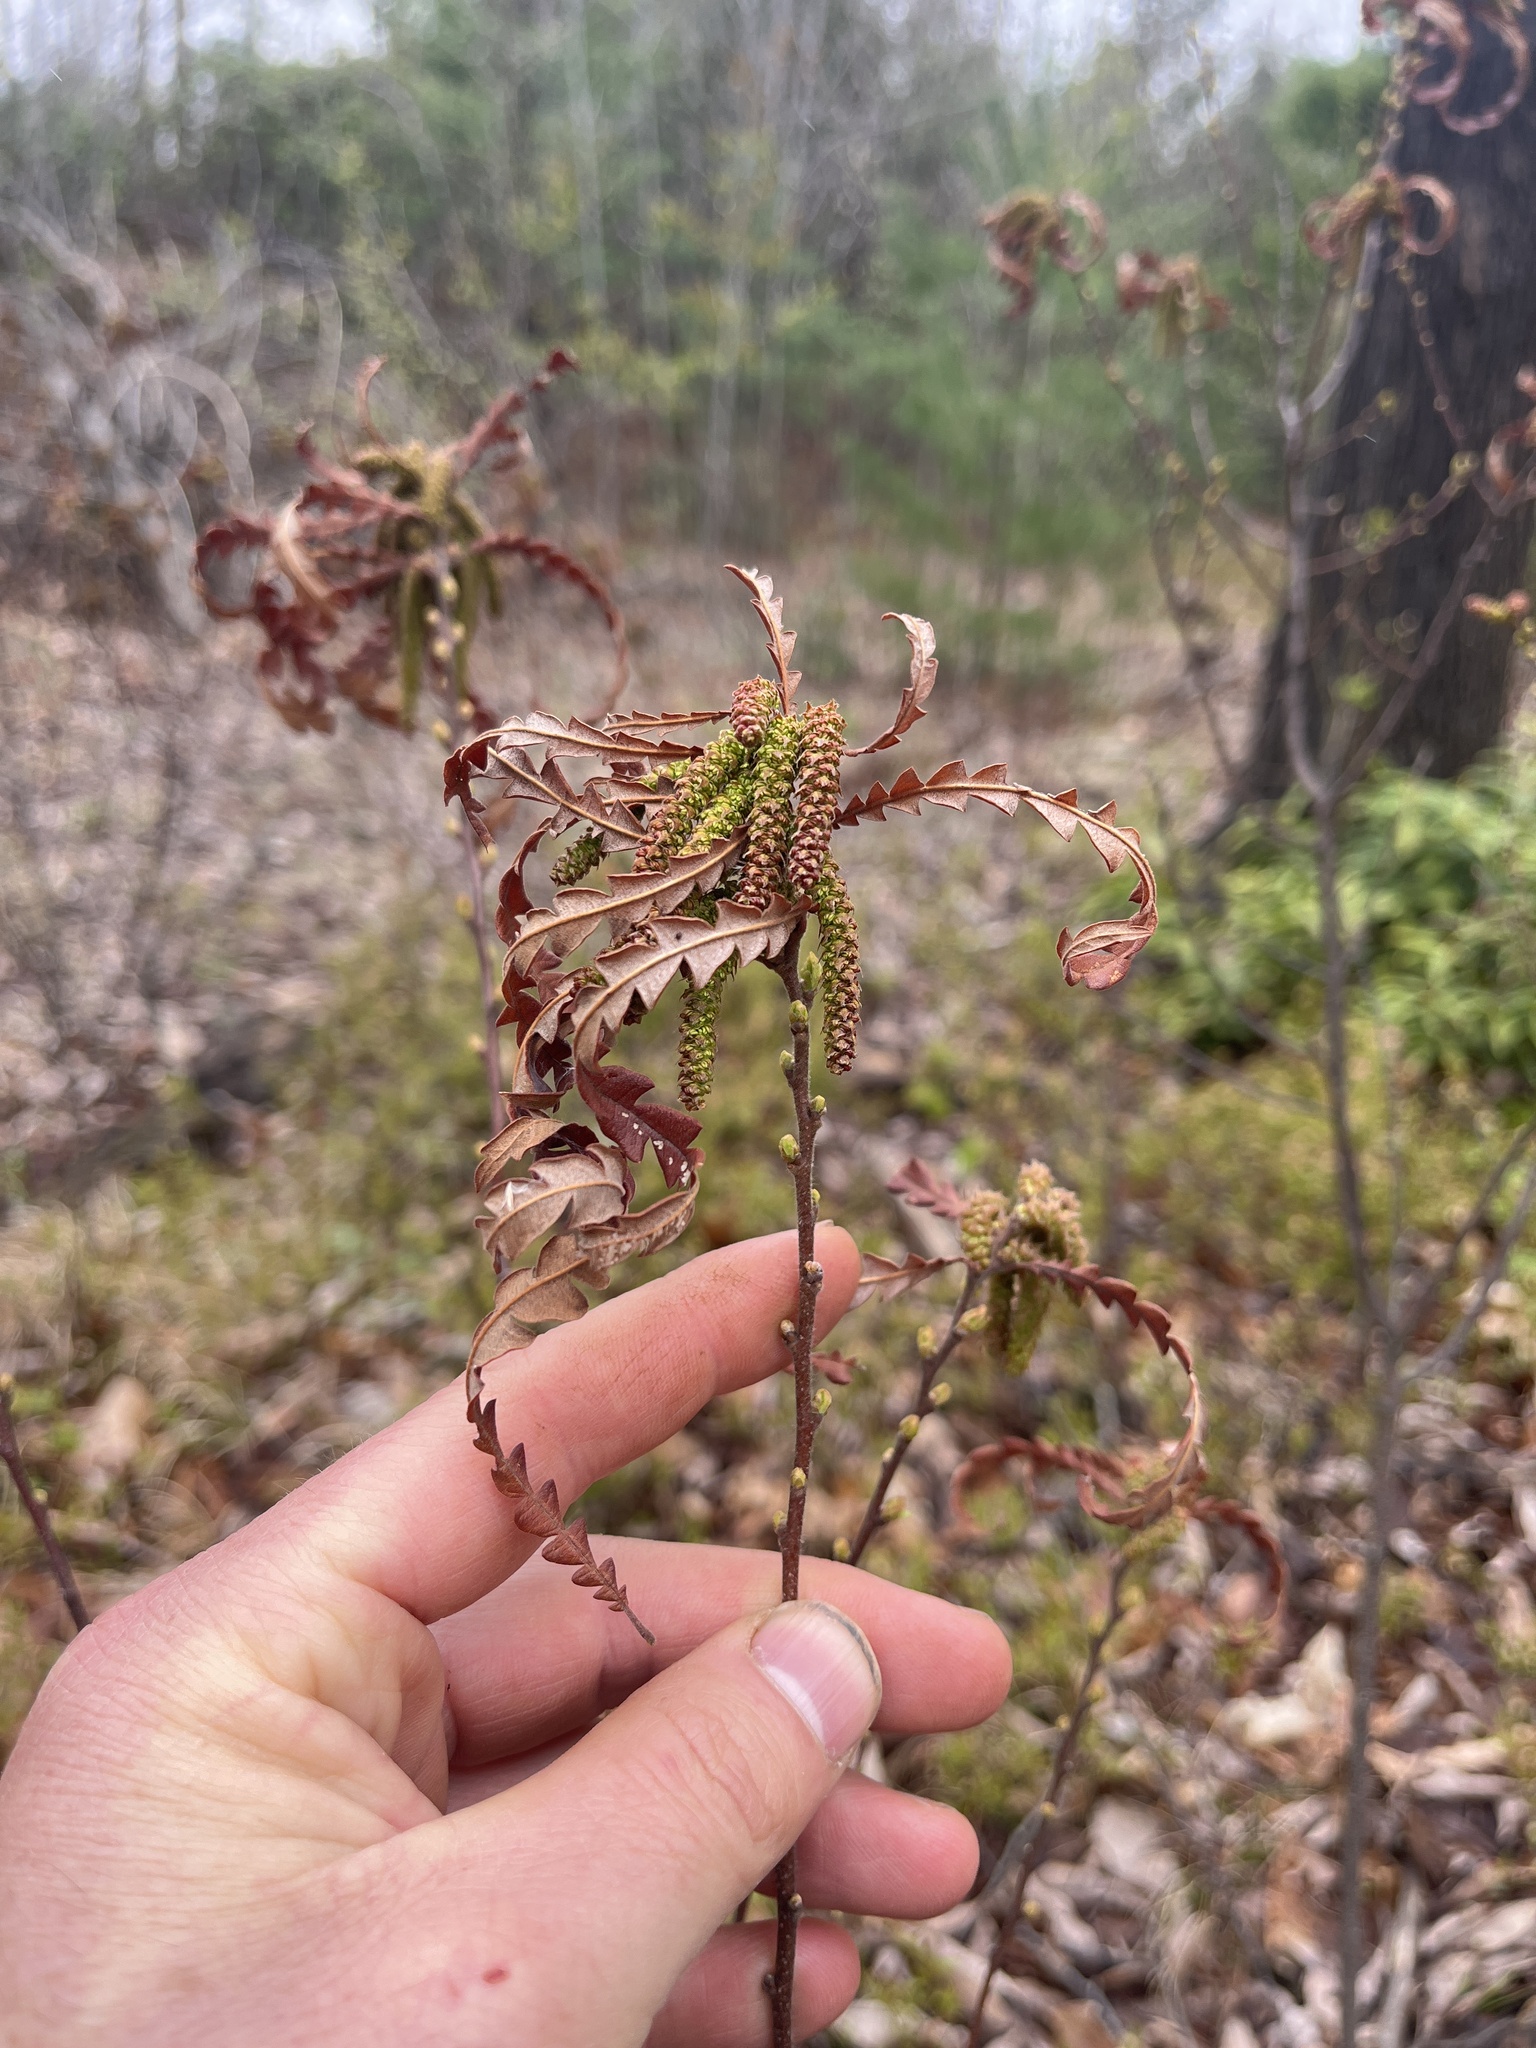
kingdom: Plantae
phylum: Tracheophyta
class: Magnoliopsida
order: Fagales
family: Myricaceae
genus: Comptonia
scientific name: Comptonia peregrina
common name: Sweet-fern
